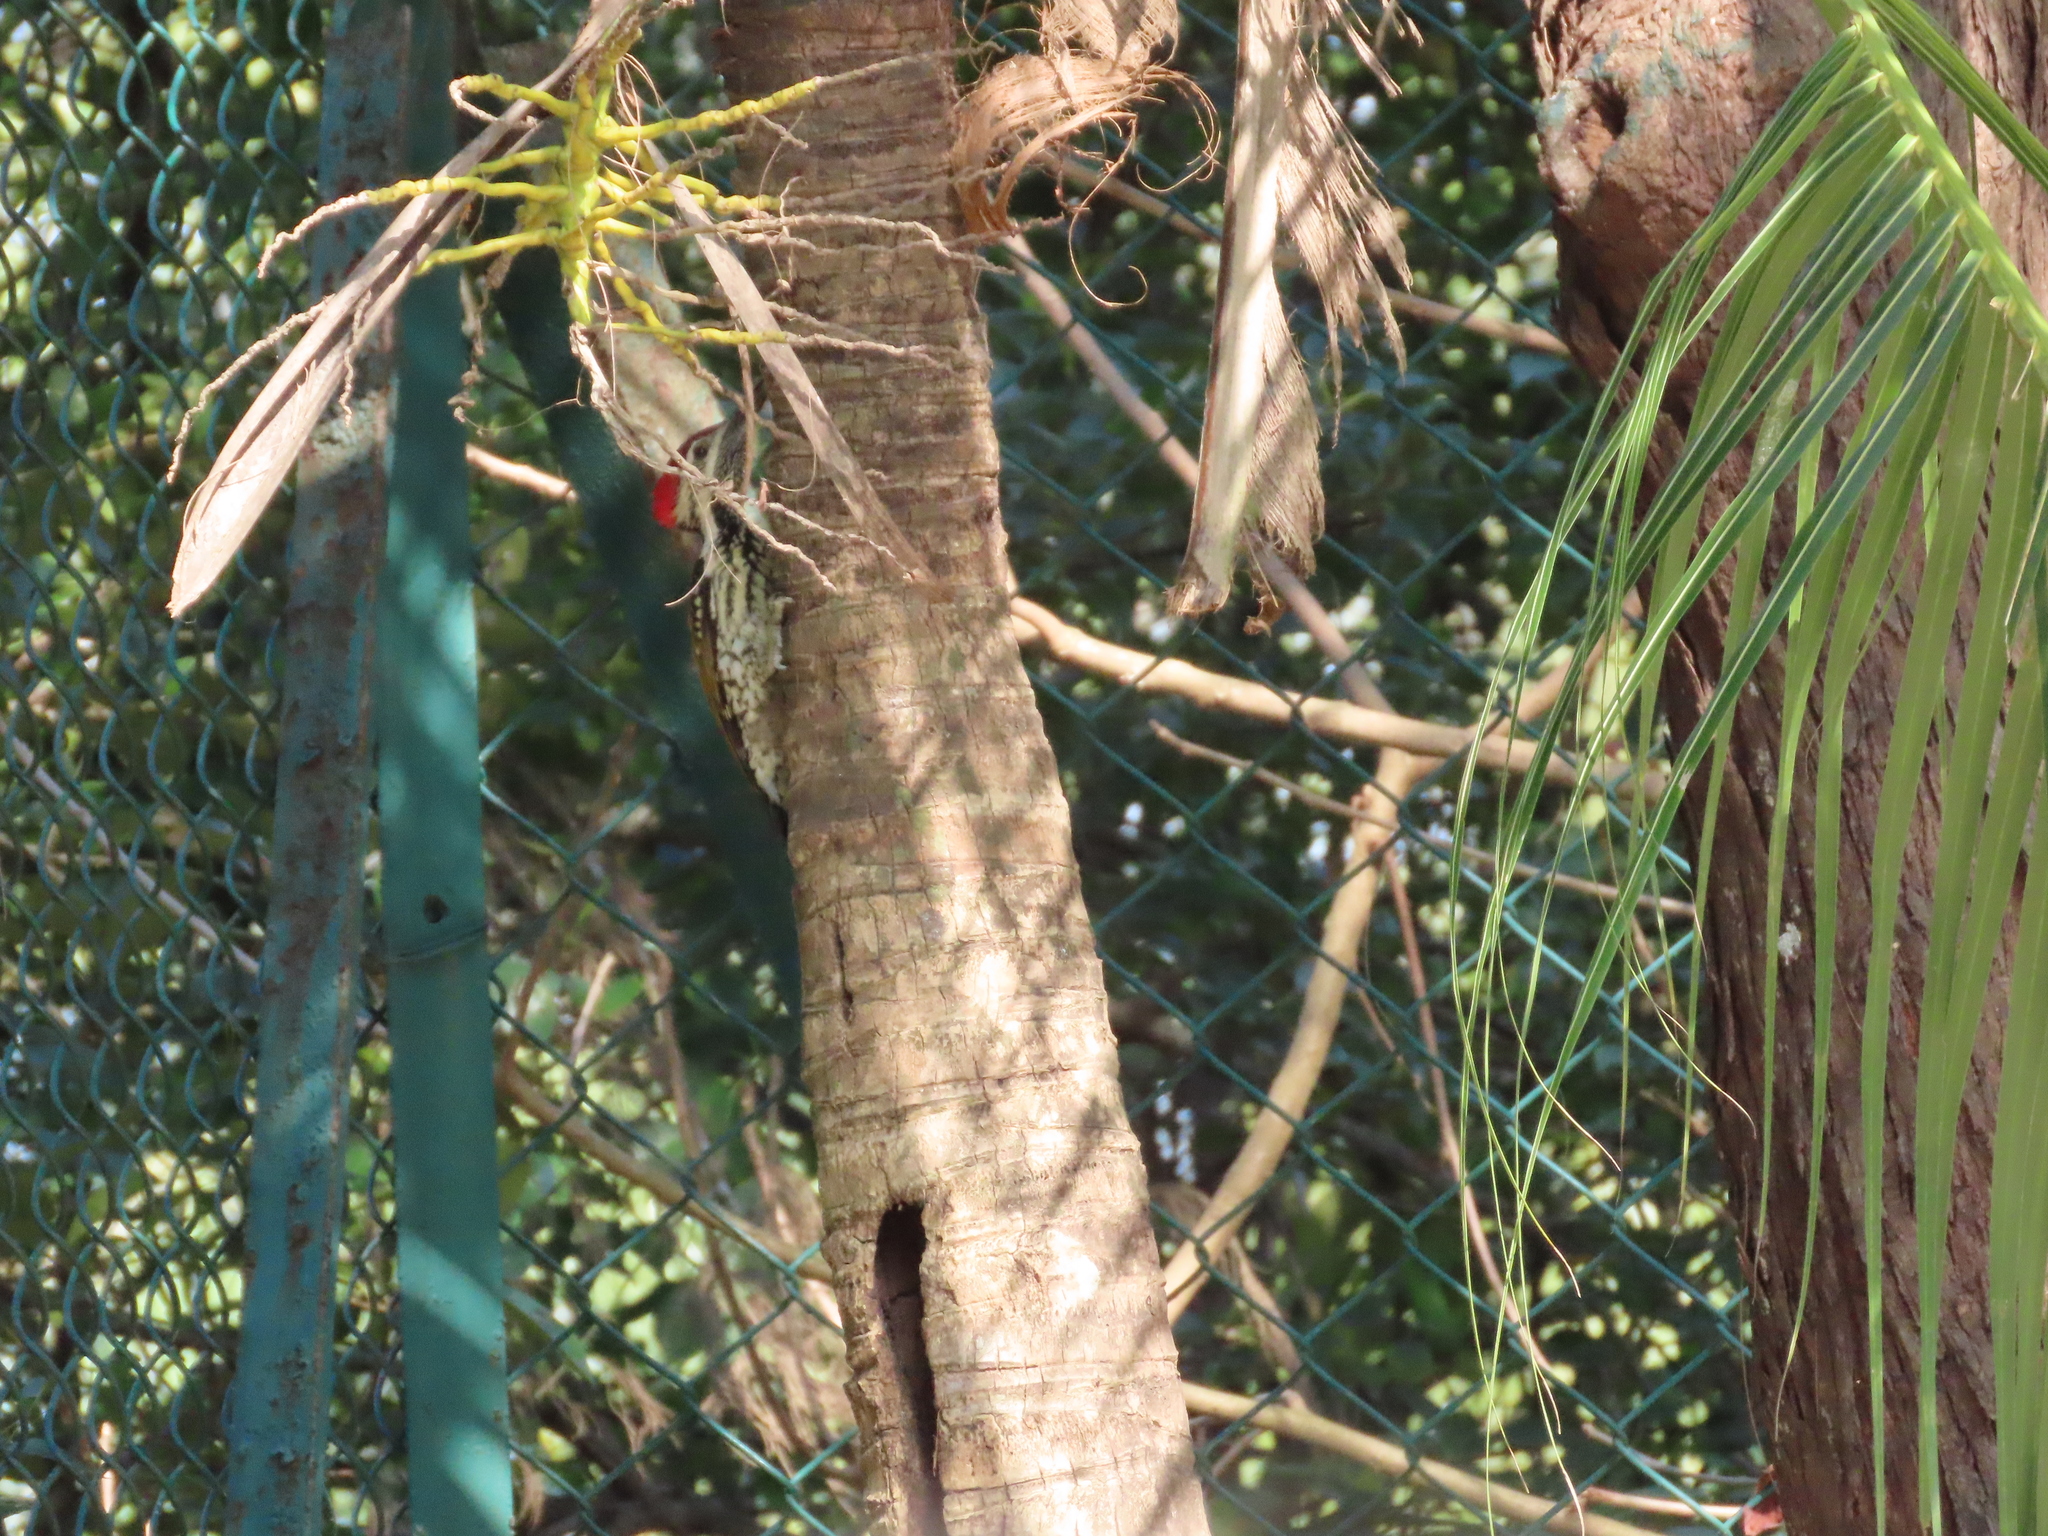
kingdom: Animalia
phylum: Chordata
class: Aves
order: Piciformes
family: Picidae
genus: Dinopium
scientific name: Dinopium benghalense
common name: Black-rumped flameback
